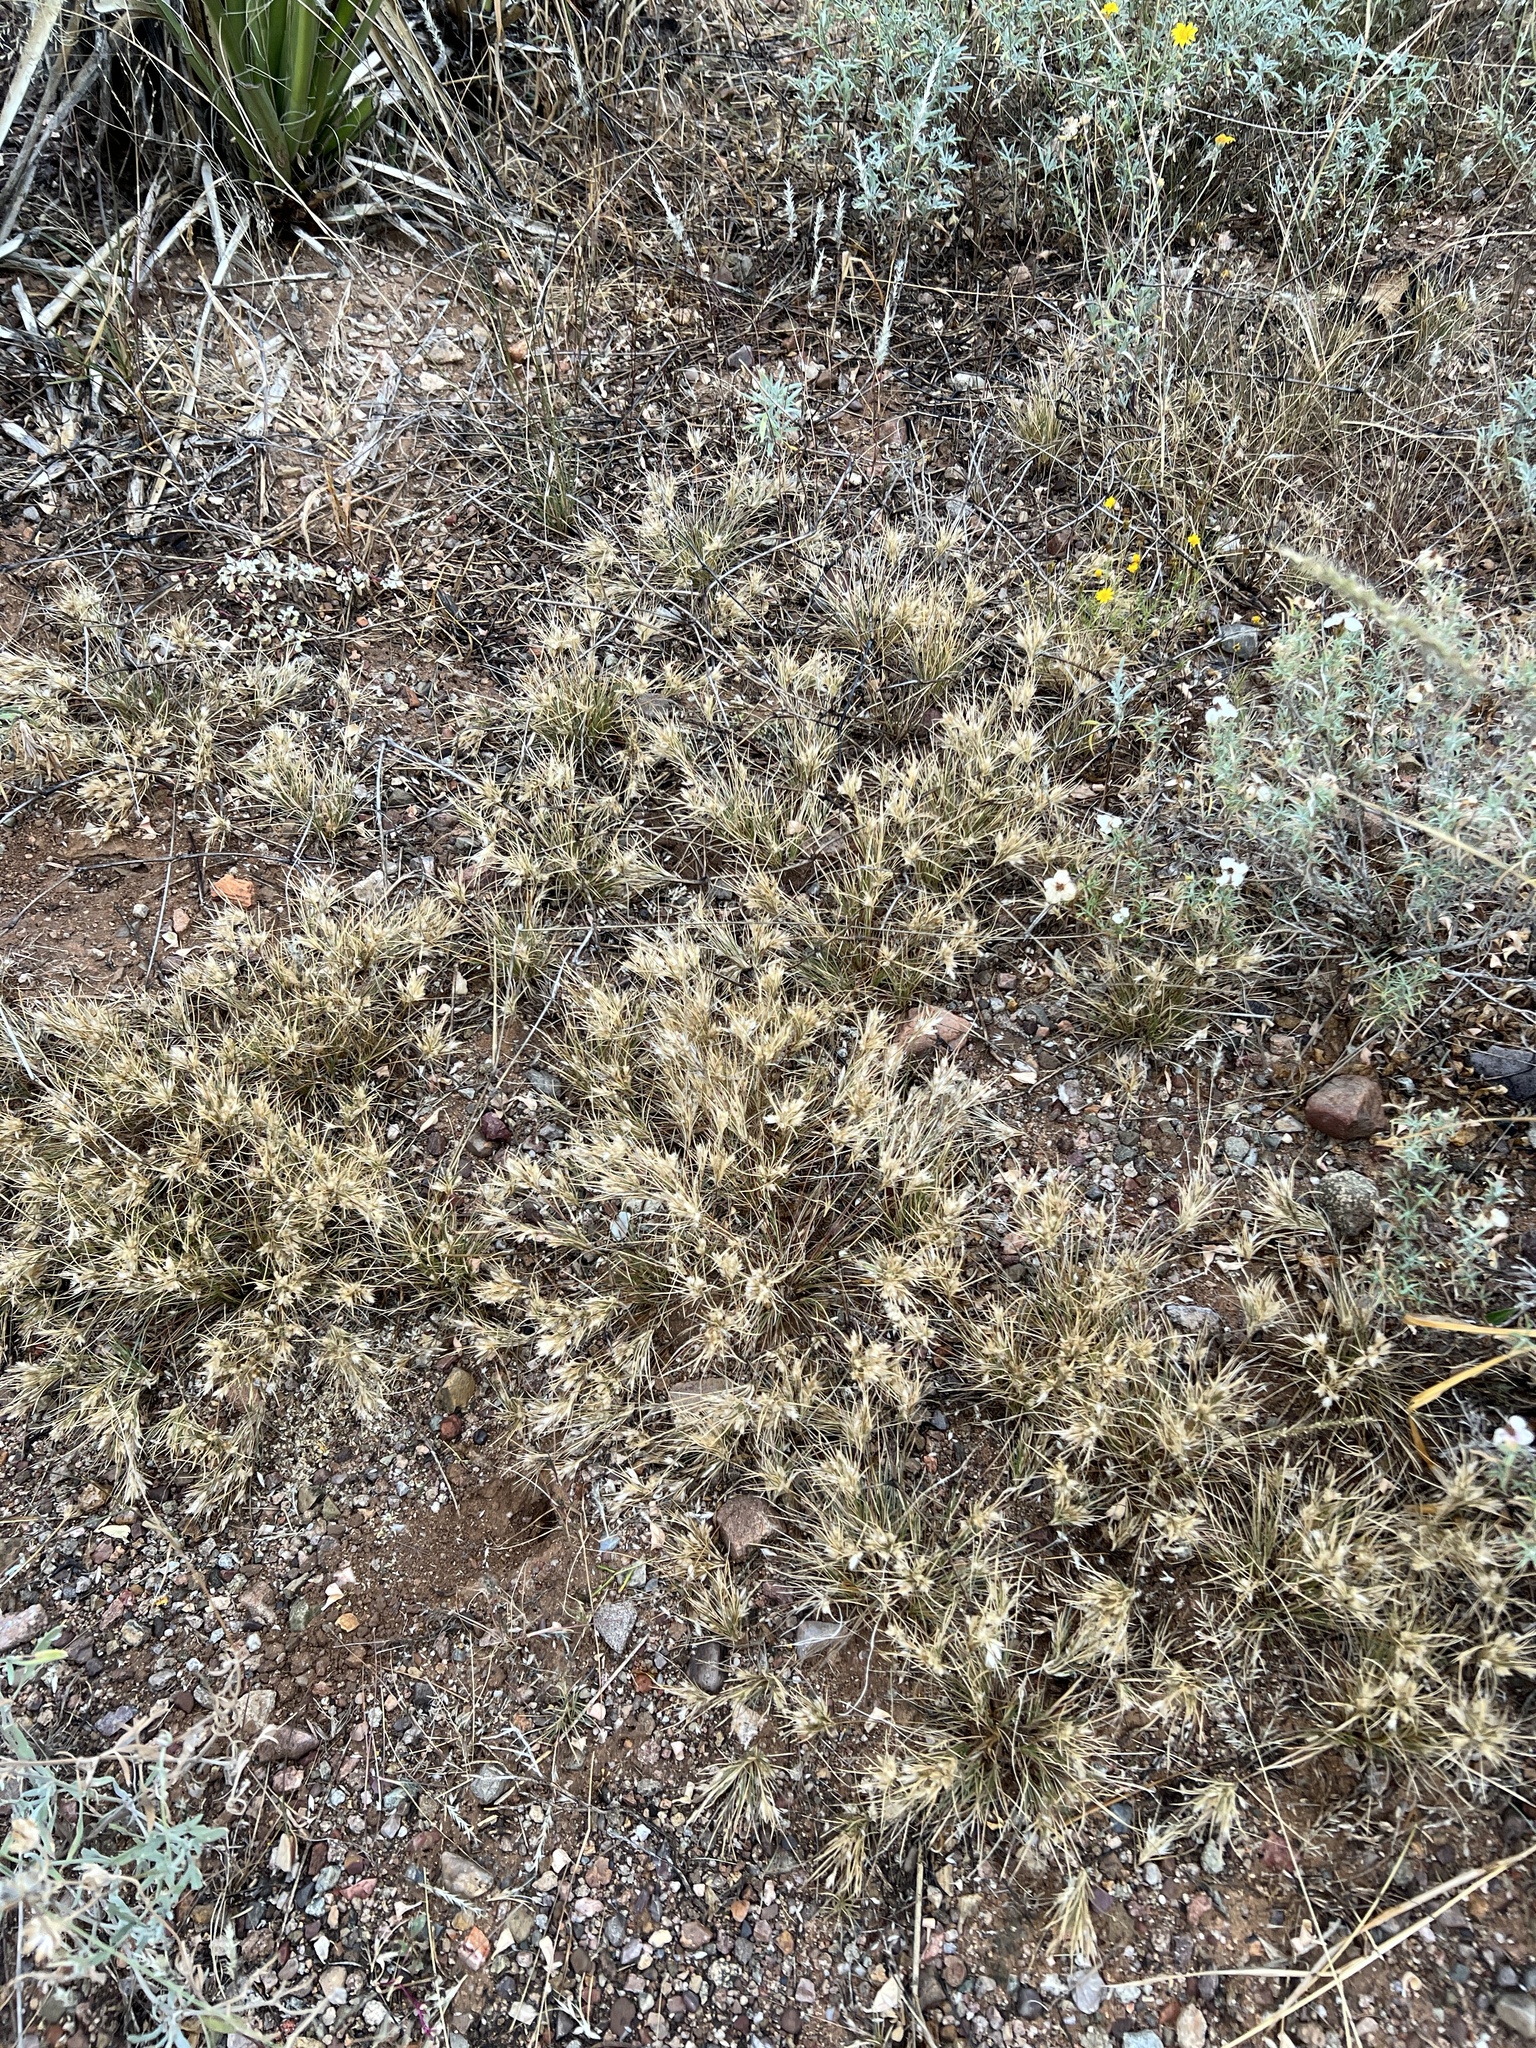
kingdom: Plantae
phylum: Tracheophyta
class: Liliopsida
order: Poales
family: Poaceae
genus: Dasyochloa
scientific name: Dasyochloa pulchella
